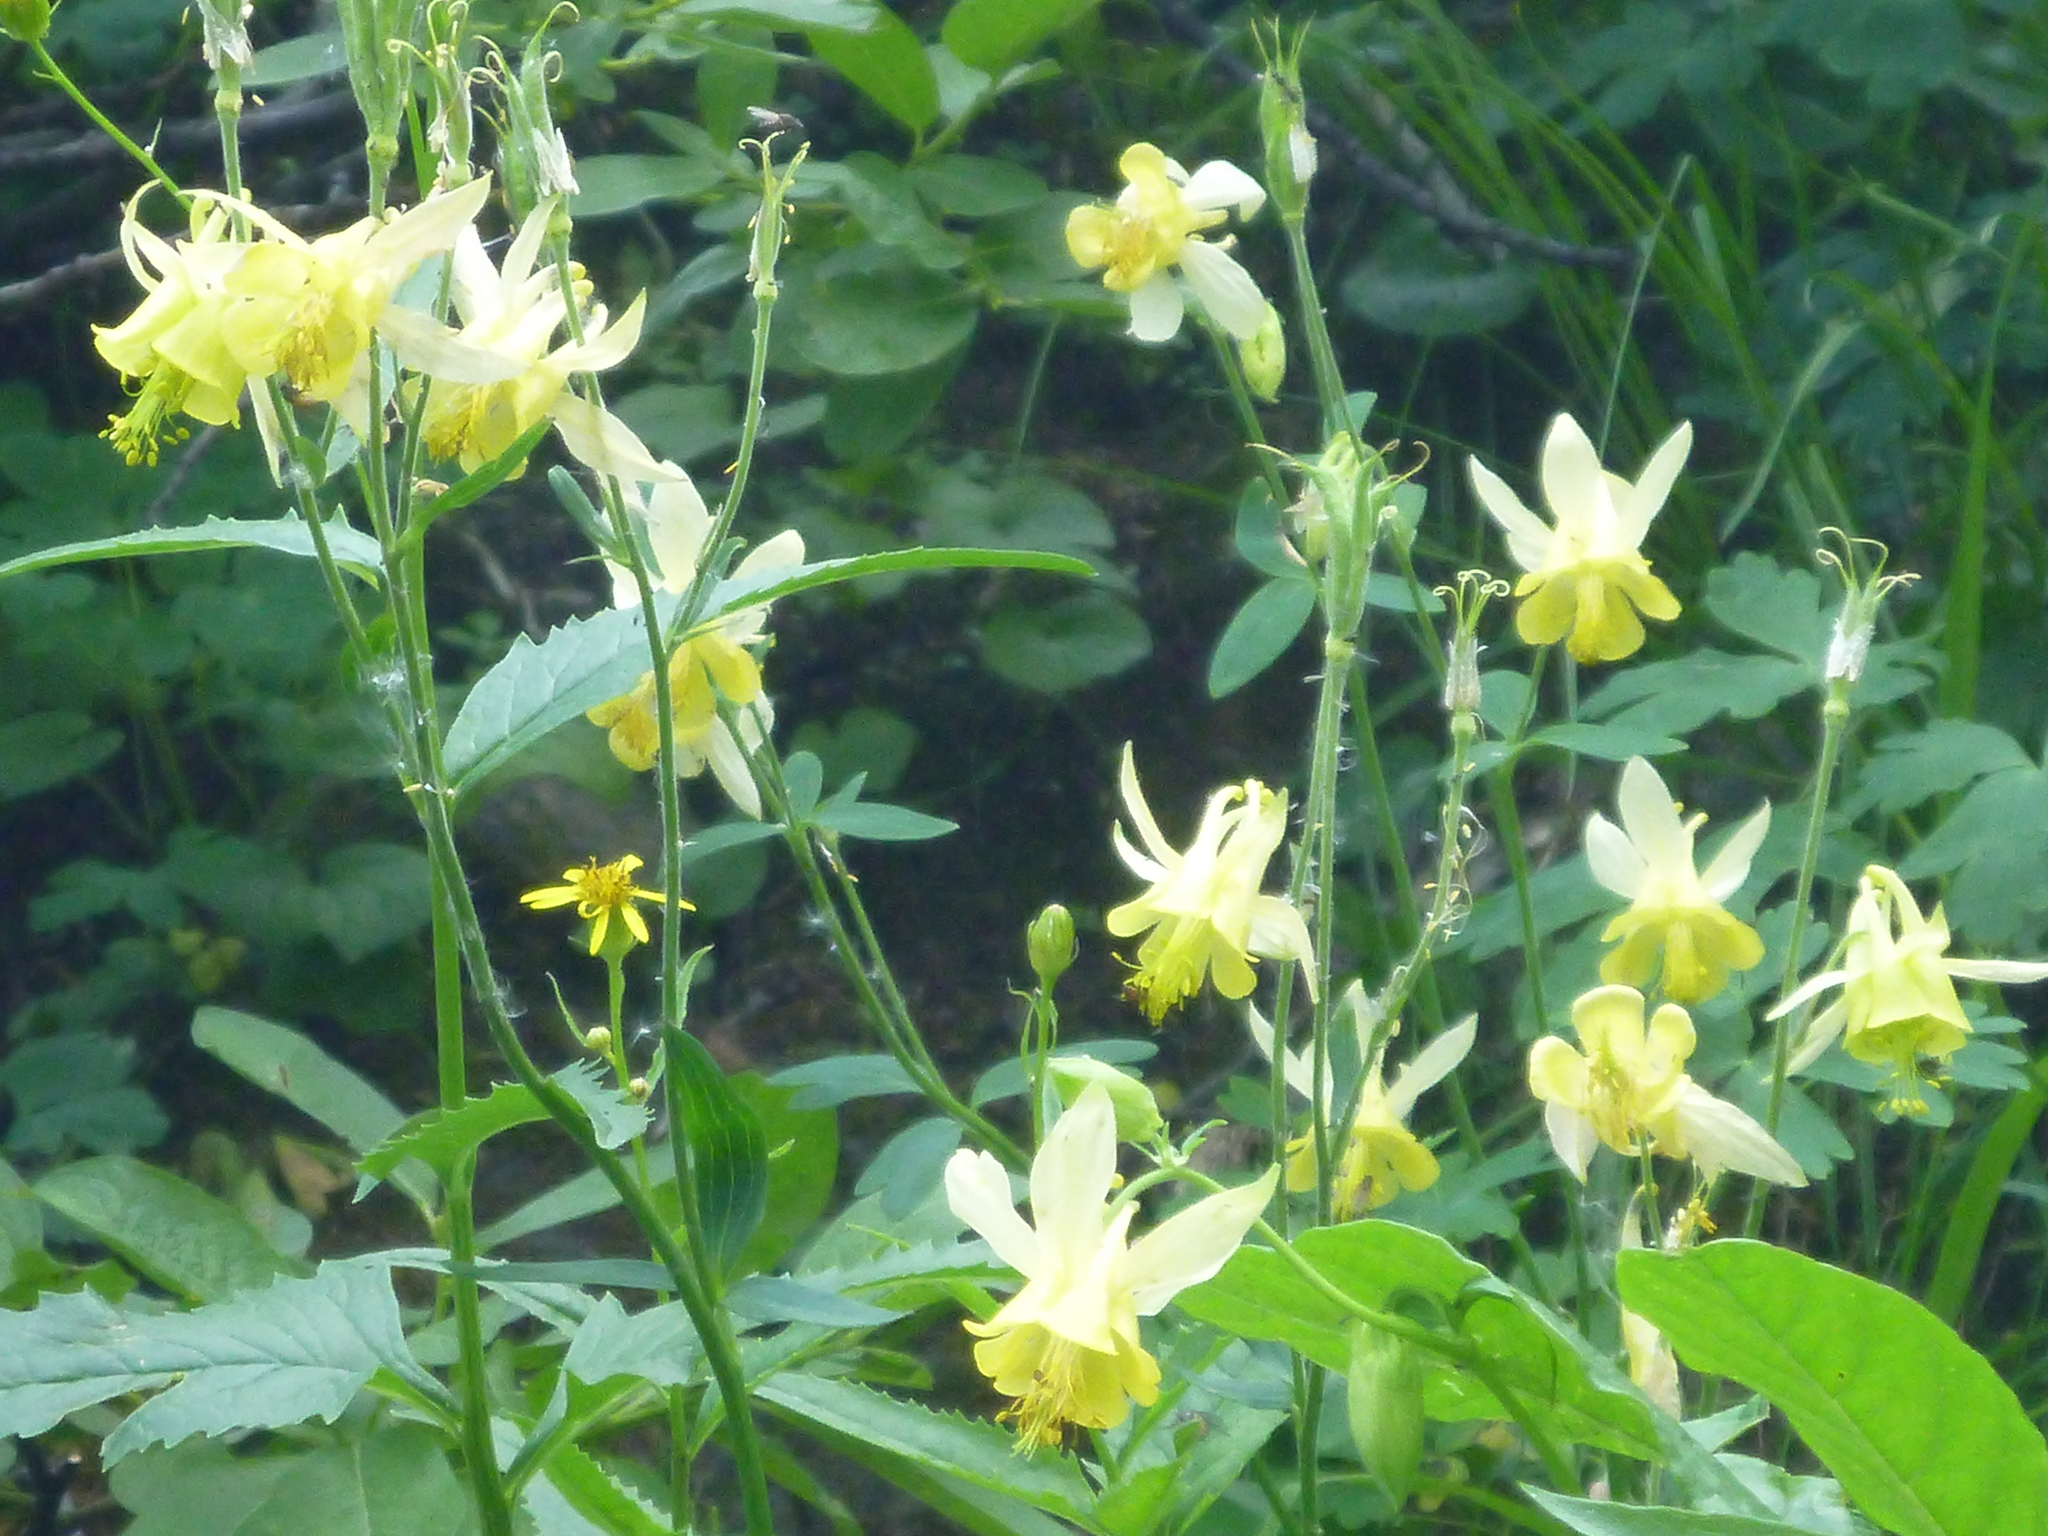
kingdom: Plantae
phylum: Tracheophyta
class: Magnoliopsida
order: Ranunculales
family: Ranunculaceae
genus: Aquilegia
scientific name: Aquilegia flavescens
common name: Yellow columbine
